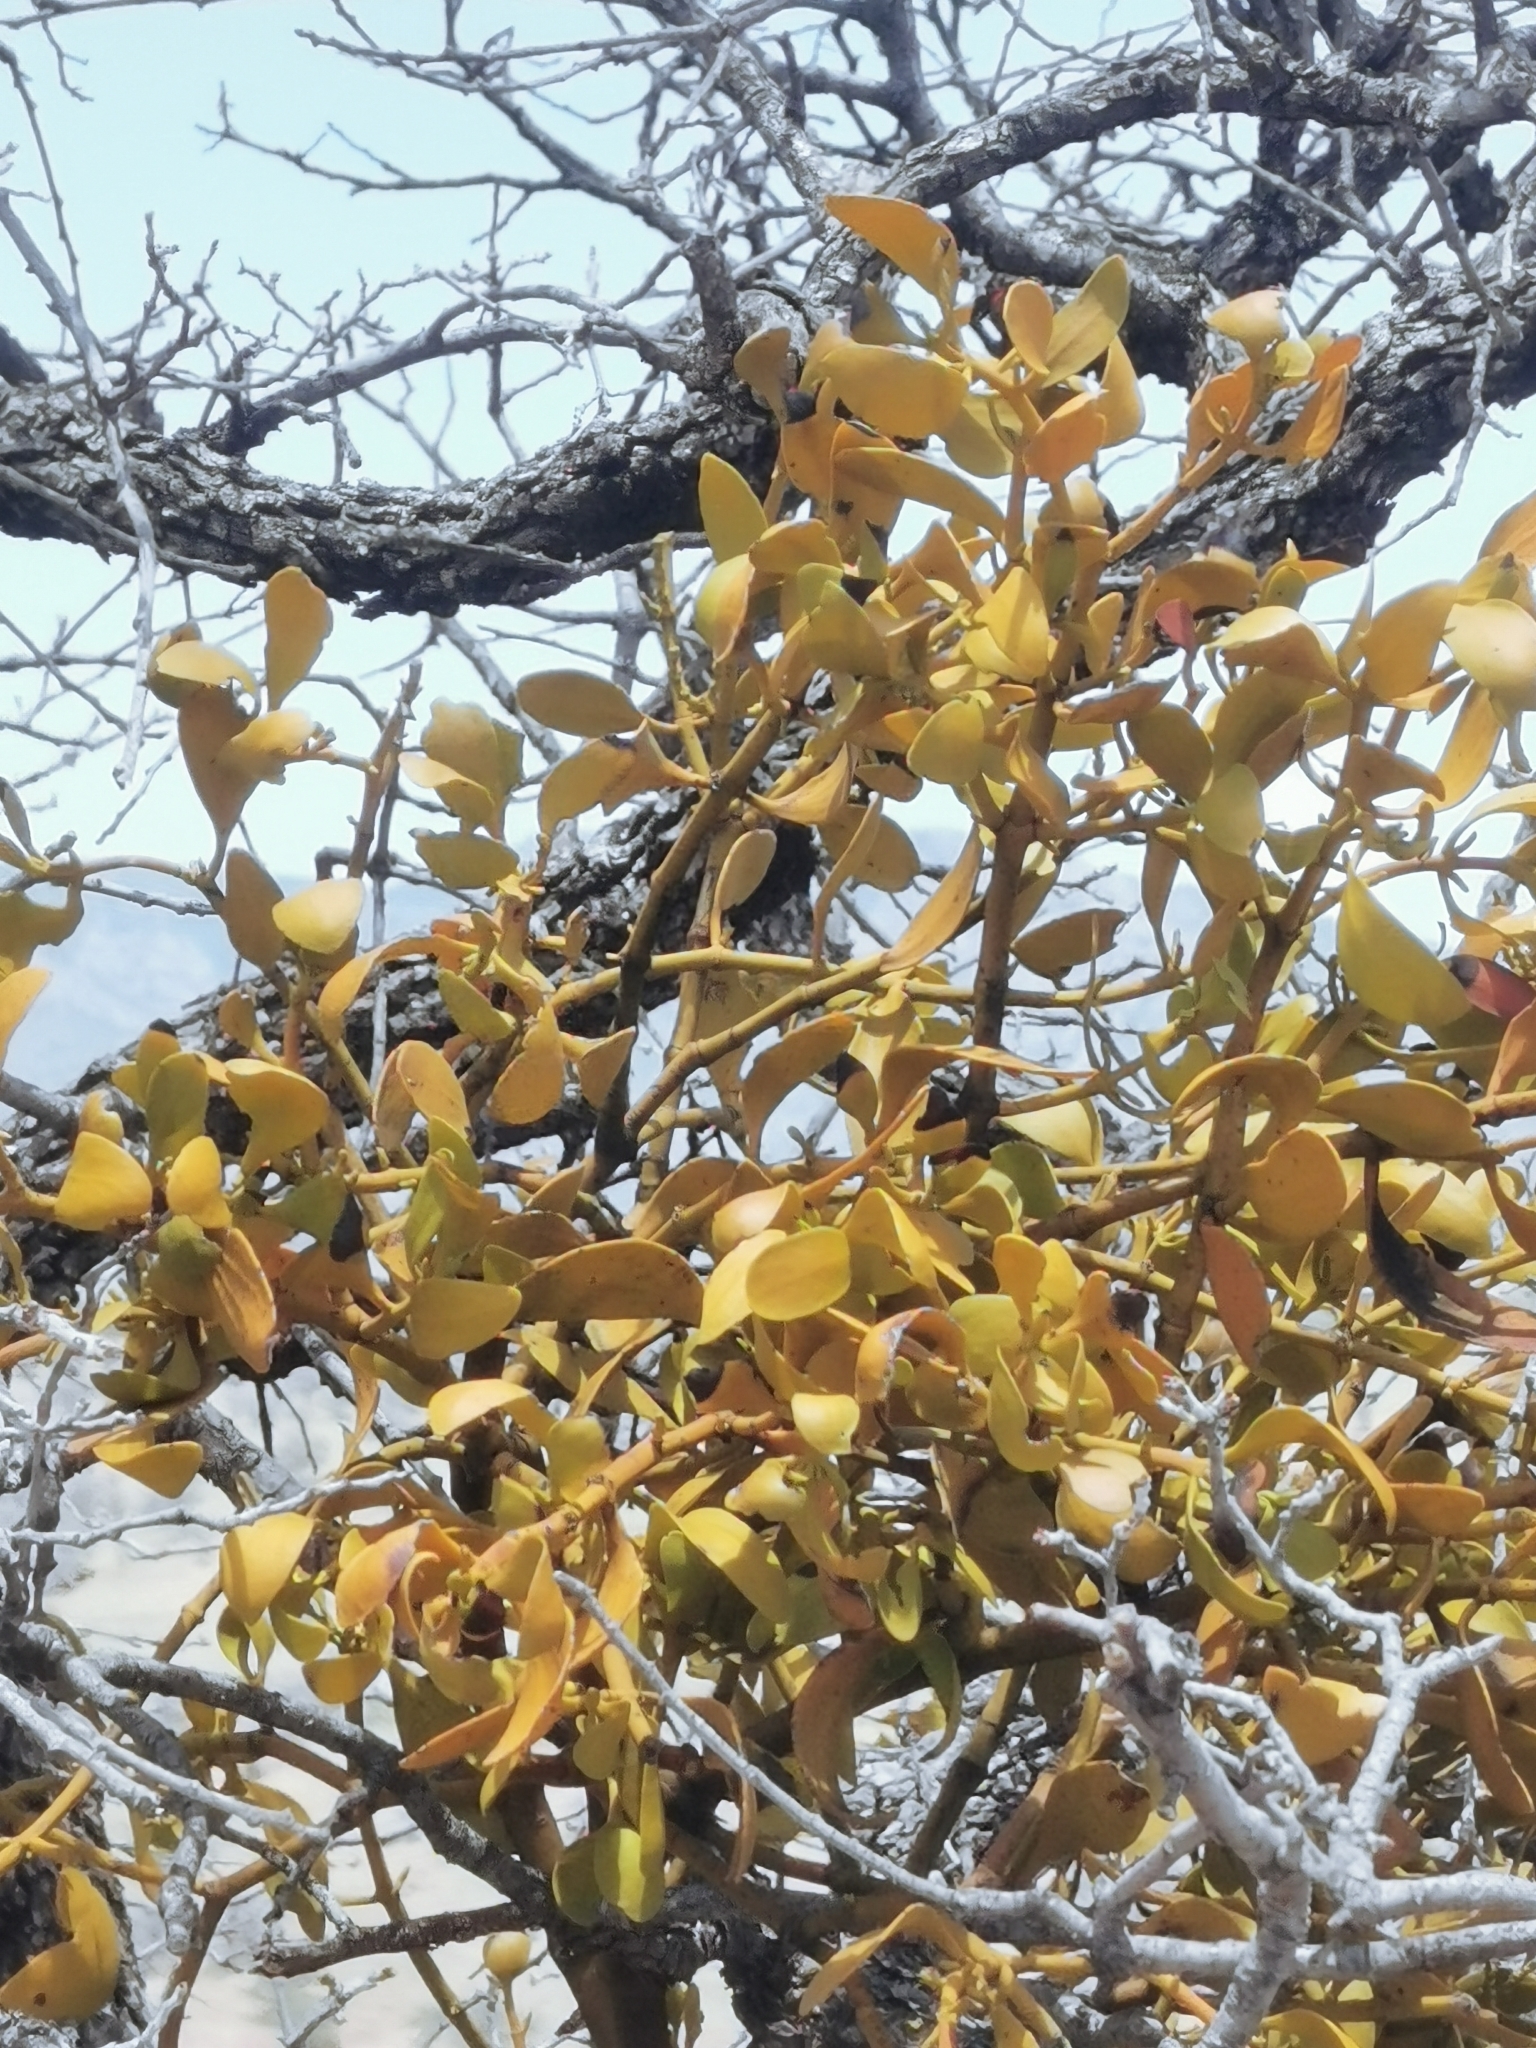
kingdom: Plantae
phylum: Tracheophyta
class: Magnoliopsida
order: Santalales
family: Viscaceae
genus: Phoradendron
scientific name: Phoradendron
